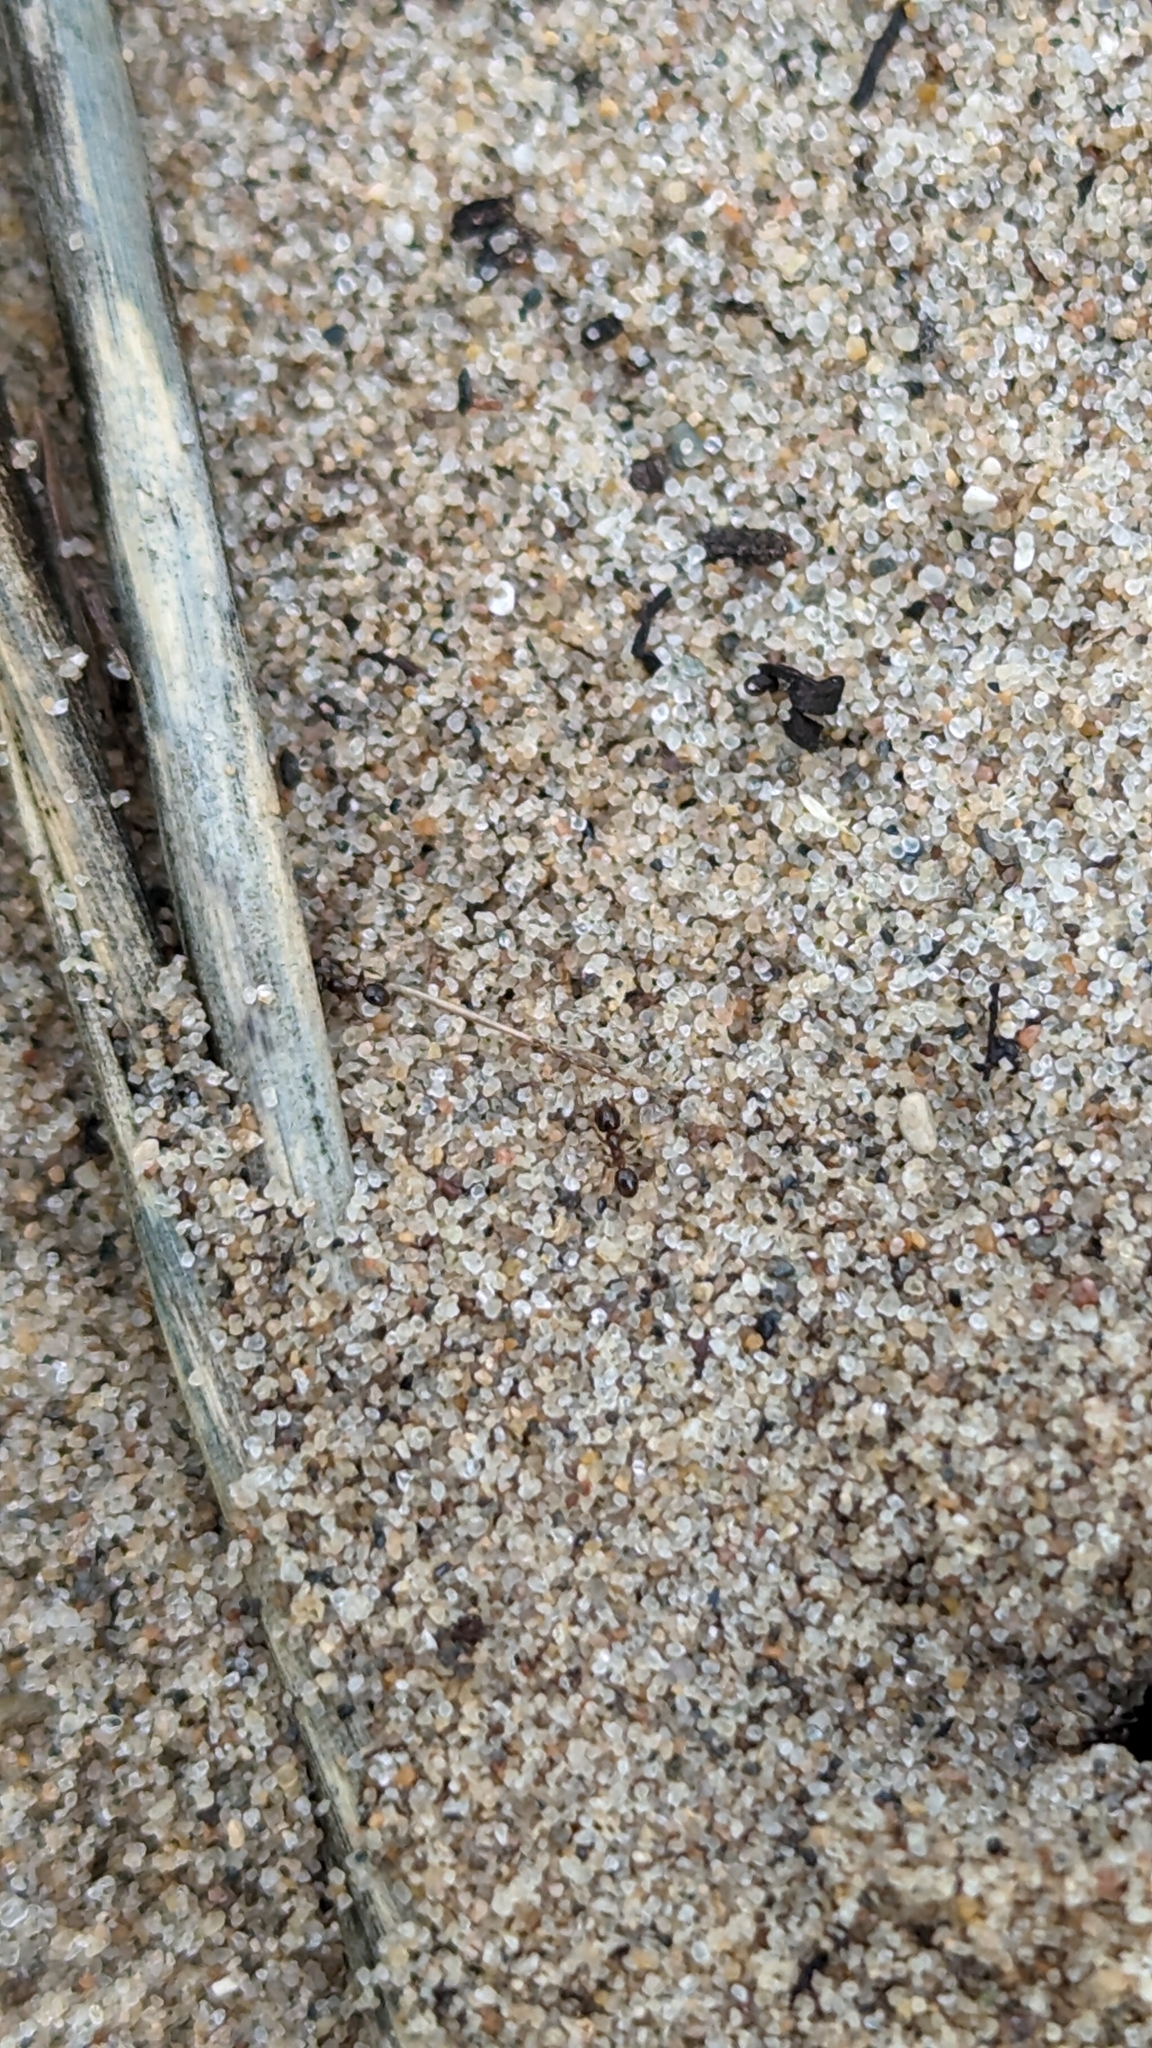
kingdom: Animalia
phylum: Arthropoda
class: Insecta
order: Hymenoptera
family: Formicidae
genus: Pheidole
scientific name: Pheidole bicarinata
